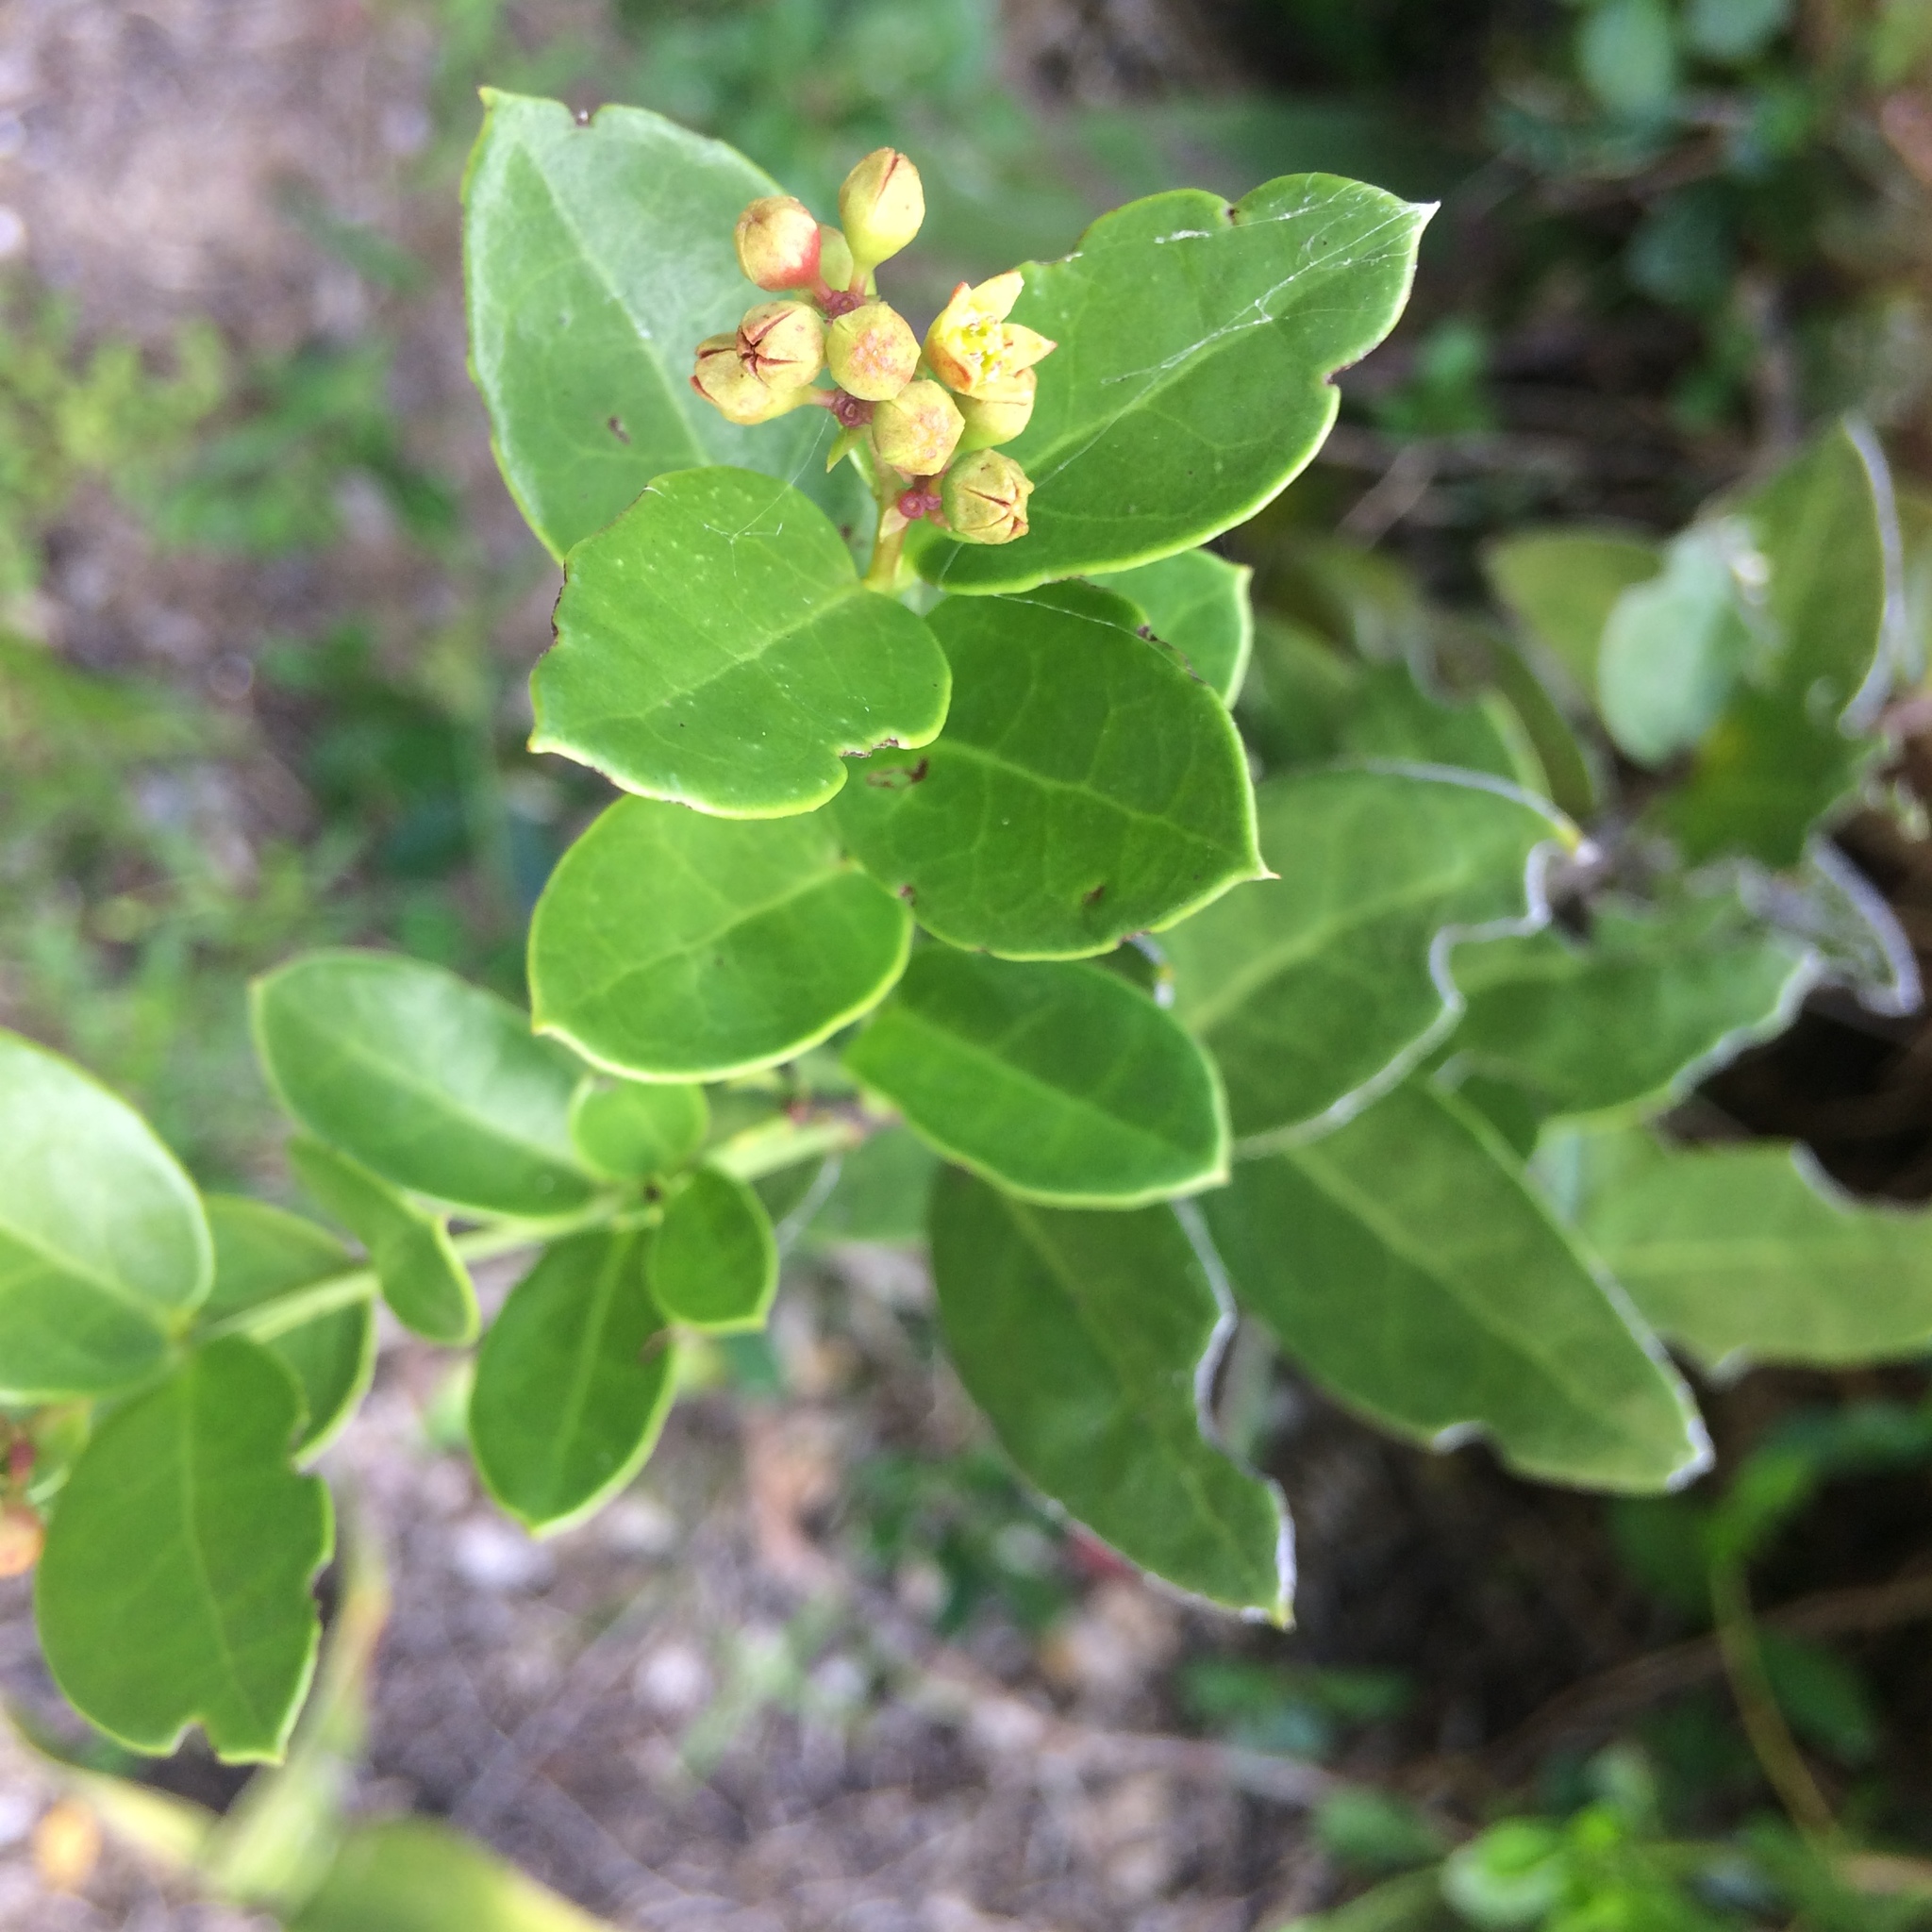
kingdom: Plantae
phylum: Tracheophyta
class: Magnoliopsida
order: Santalales
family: Santalaceae
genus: Rhoiacarpos
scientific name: Rhoiacarpos capensis
